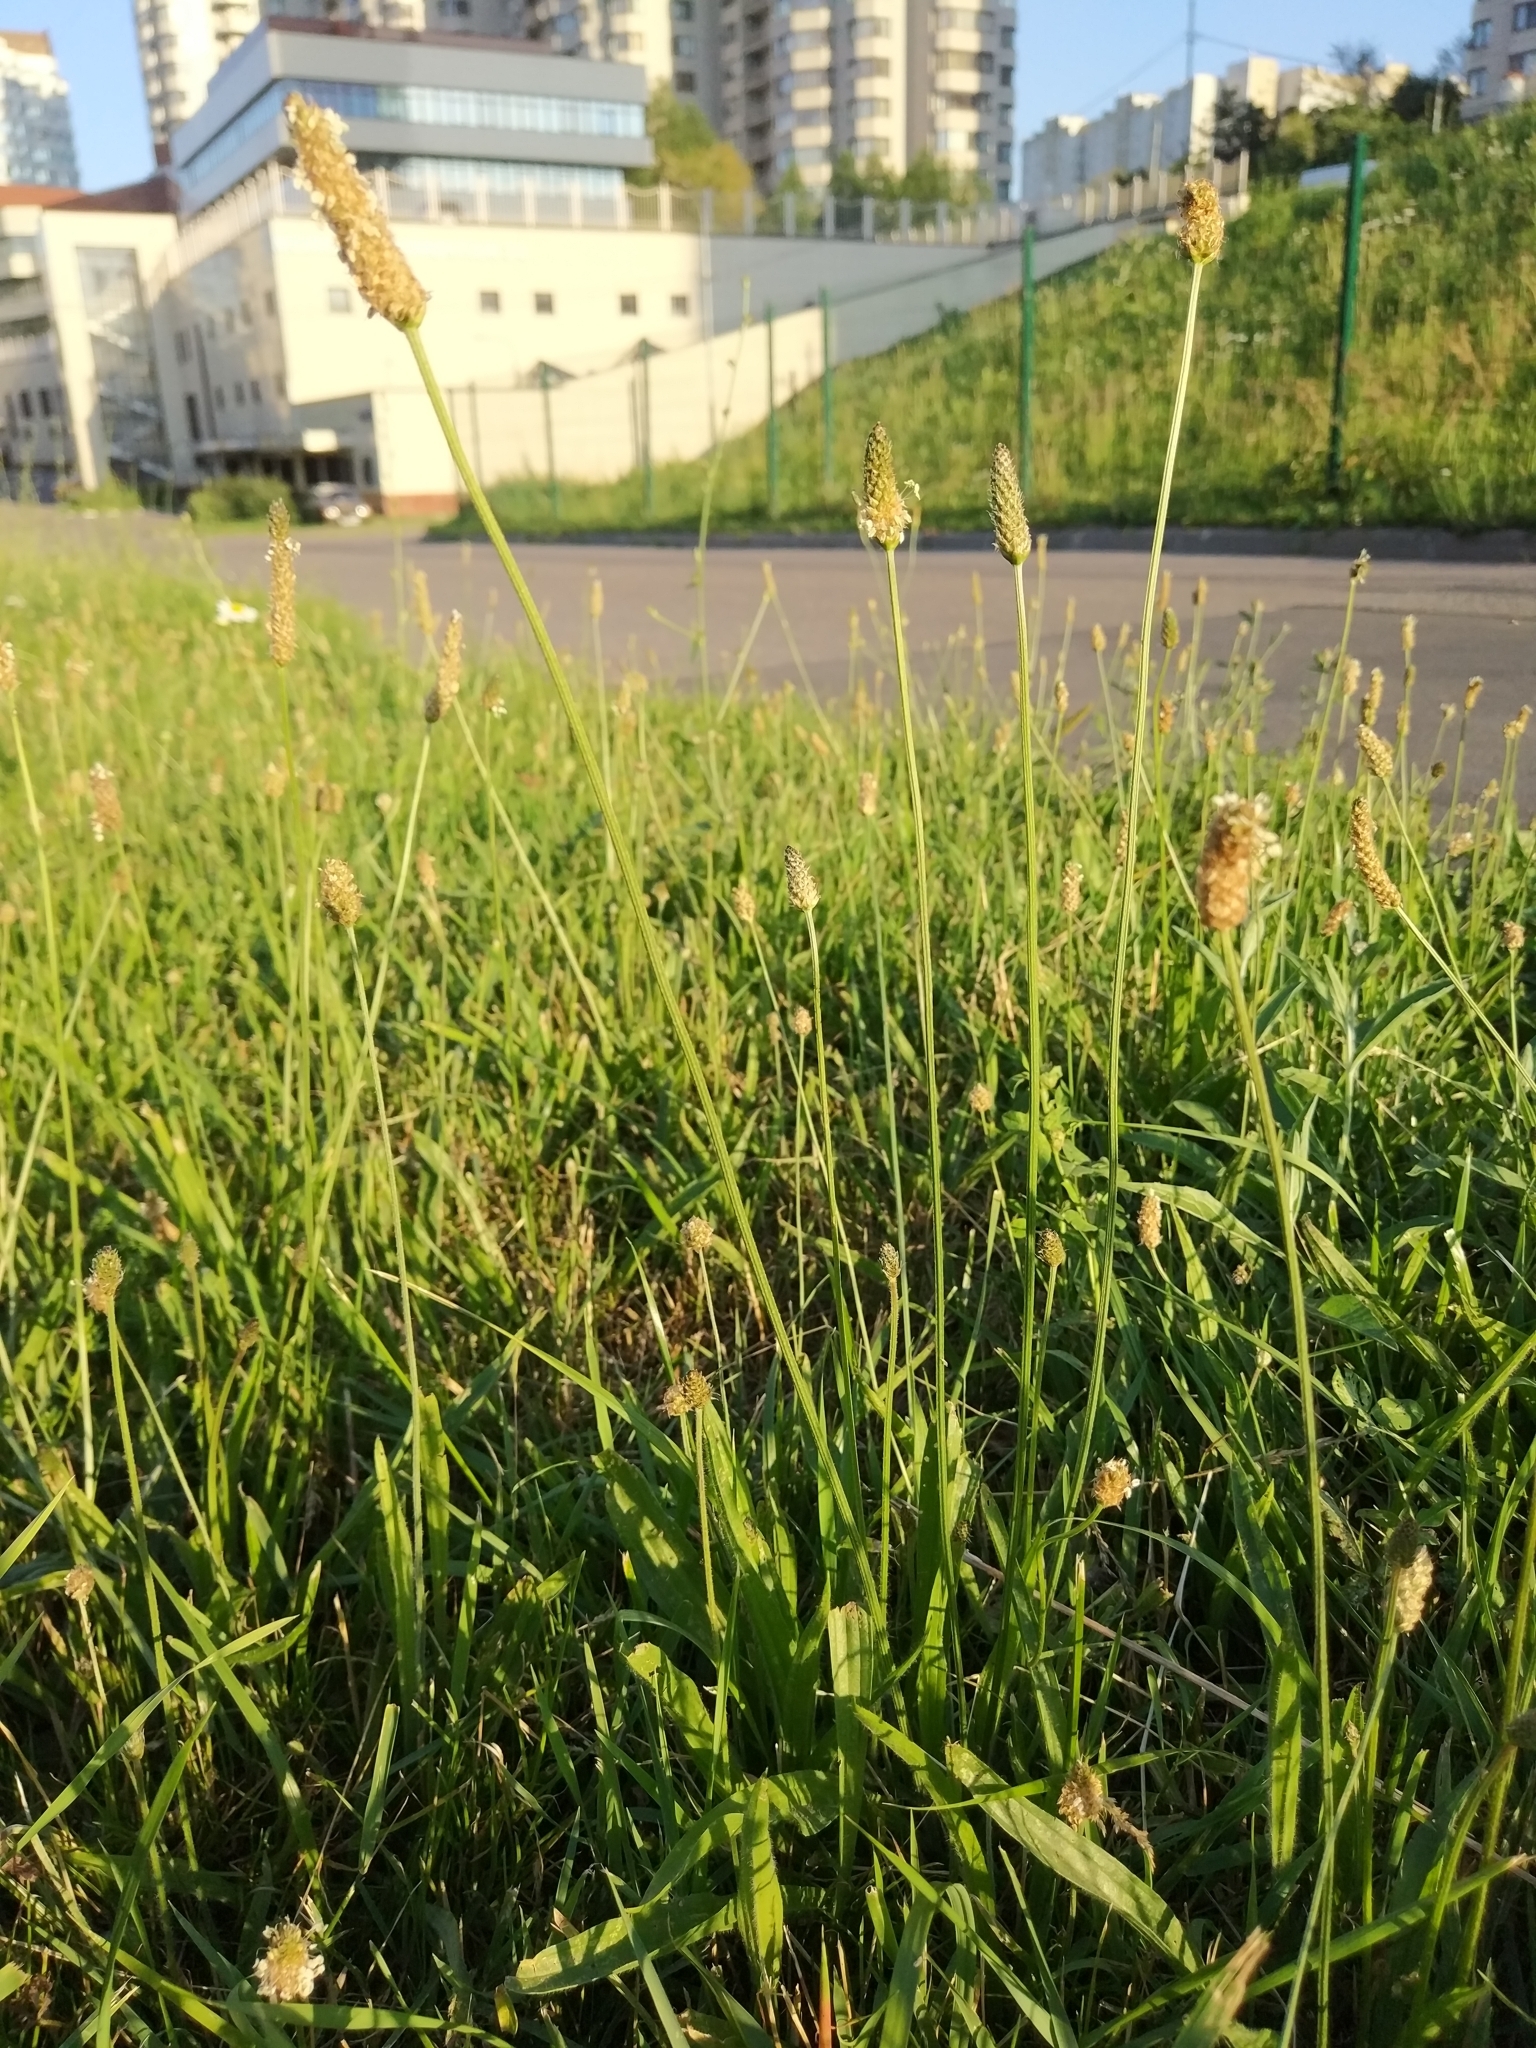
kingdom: Plantae
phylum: Tracheophyta
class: Magnoliopsida
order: Lamiales
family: Plantaginaceae
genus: Plantago
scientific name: Plantago lanceolata
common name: Ribwort plantain
